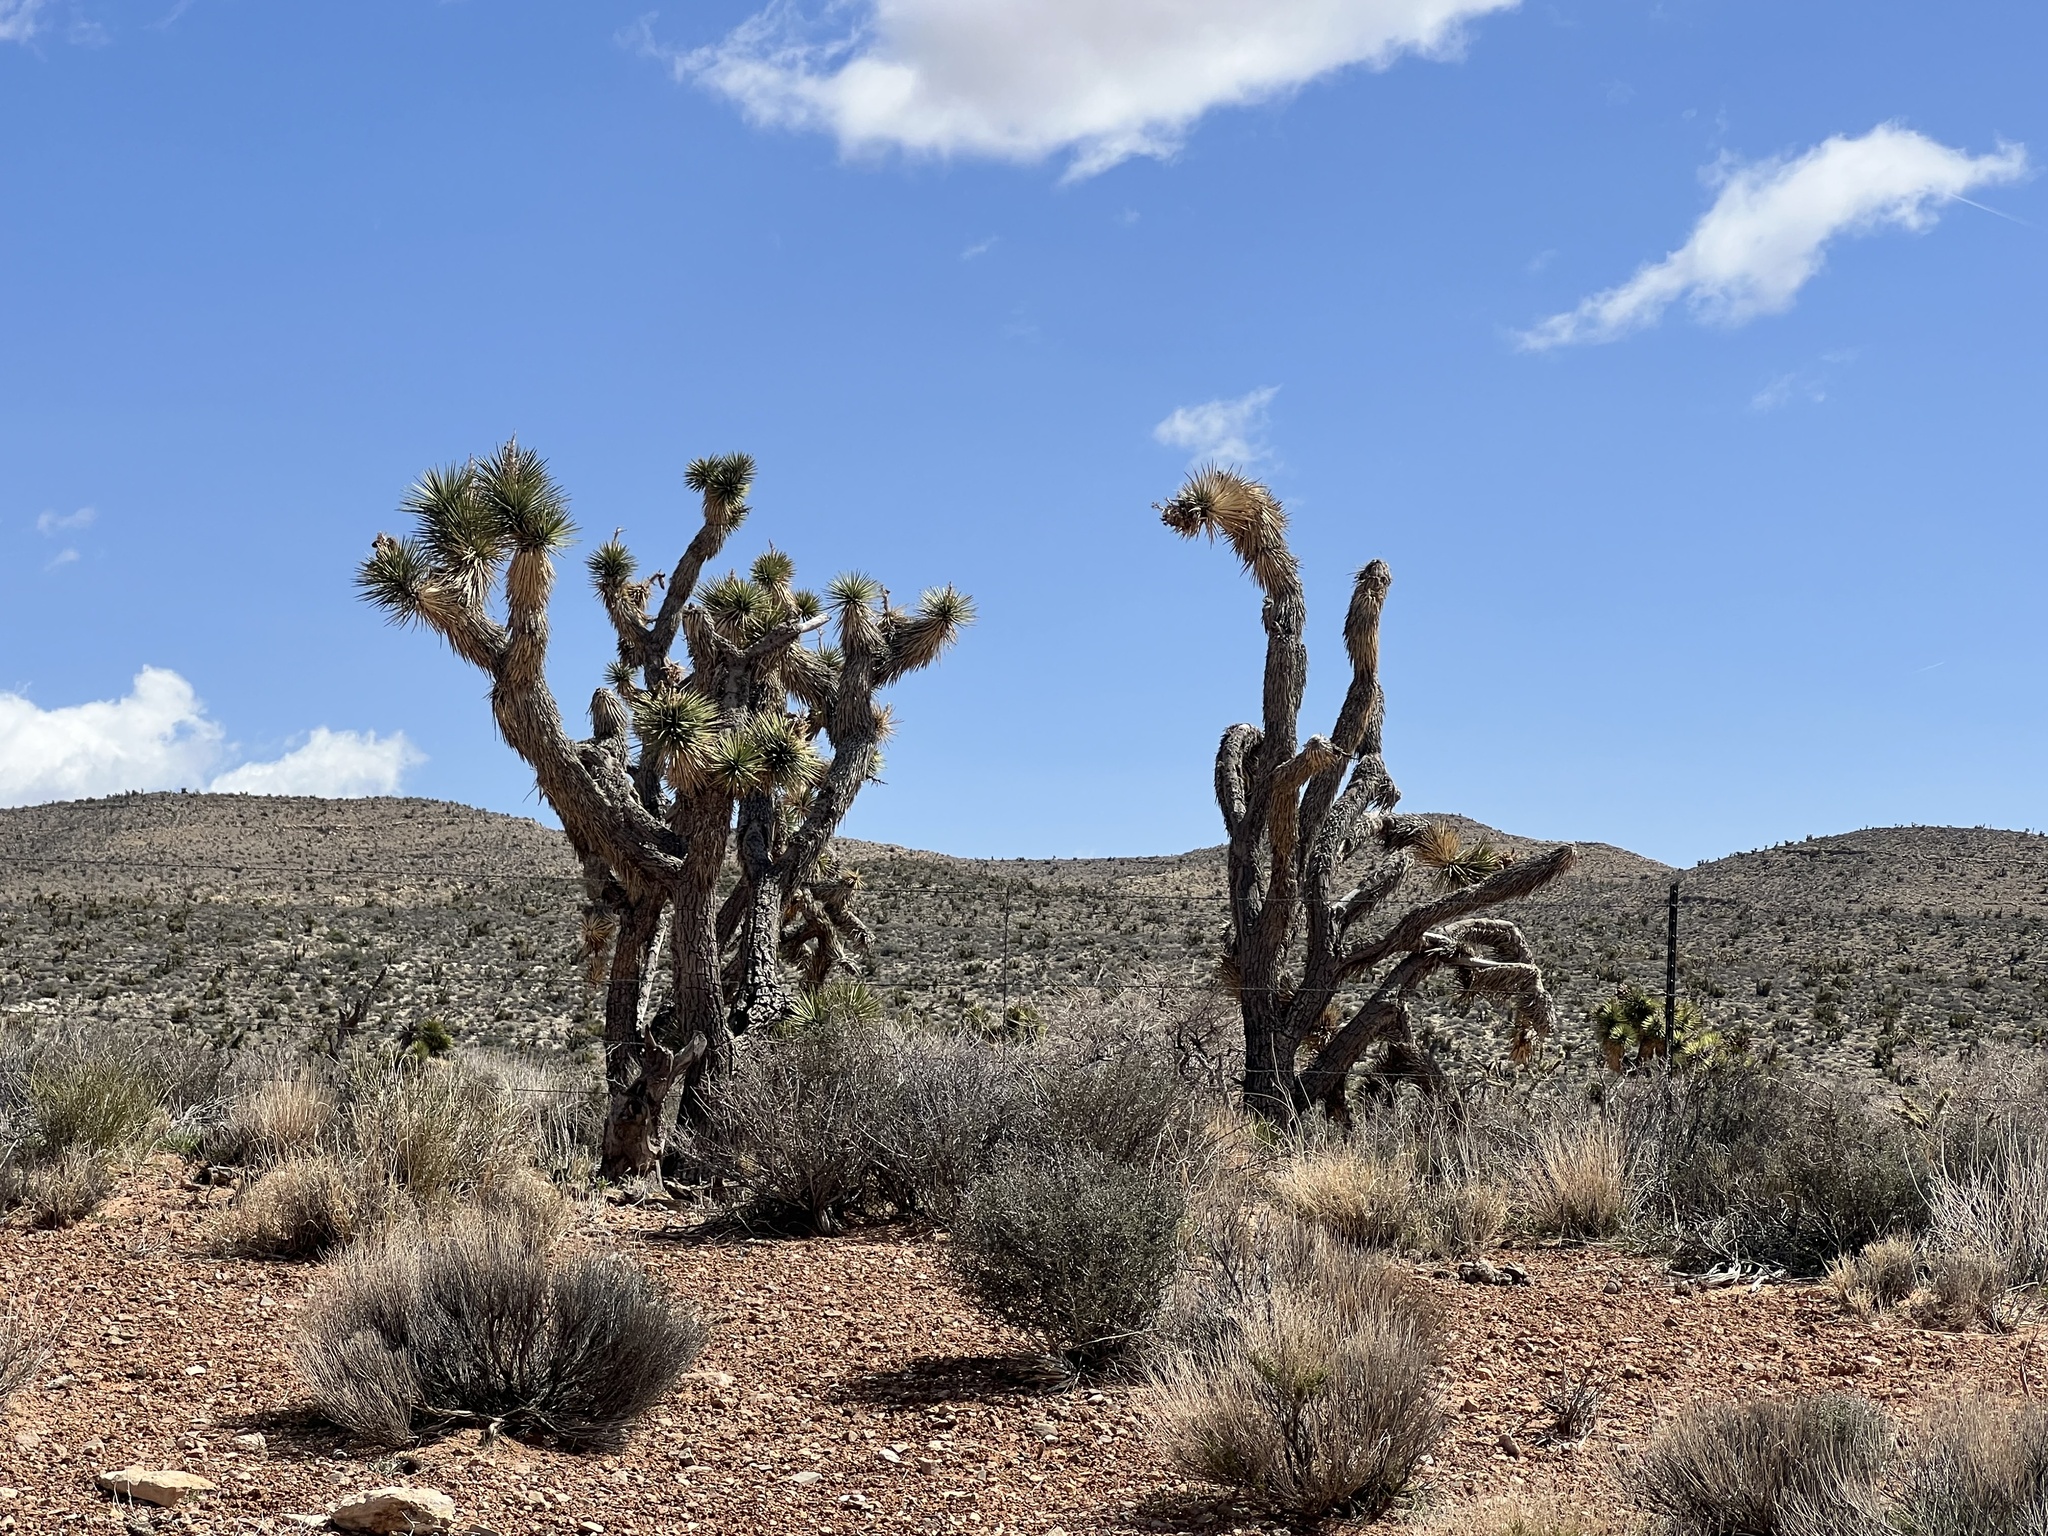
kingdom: Plantae
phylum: Tracheophyta
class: Liliopsida
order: Asparagales
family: Asparagaceae
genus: Yucca
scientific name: Yucca brevifolia
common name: Joshua tree
